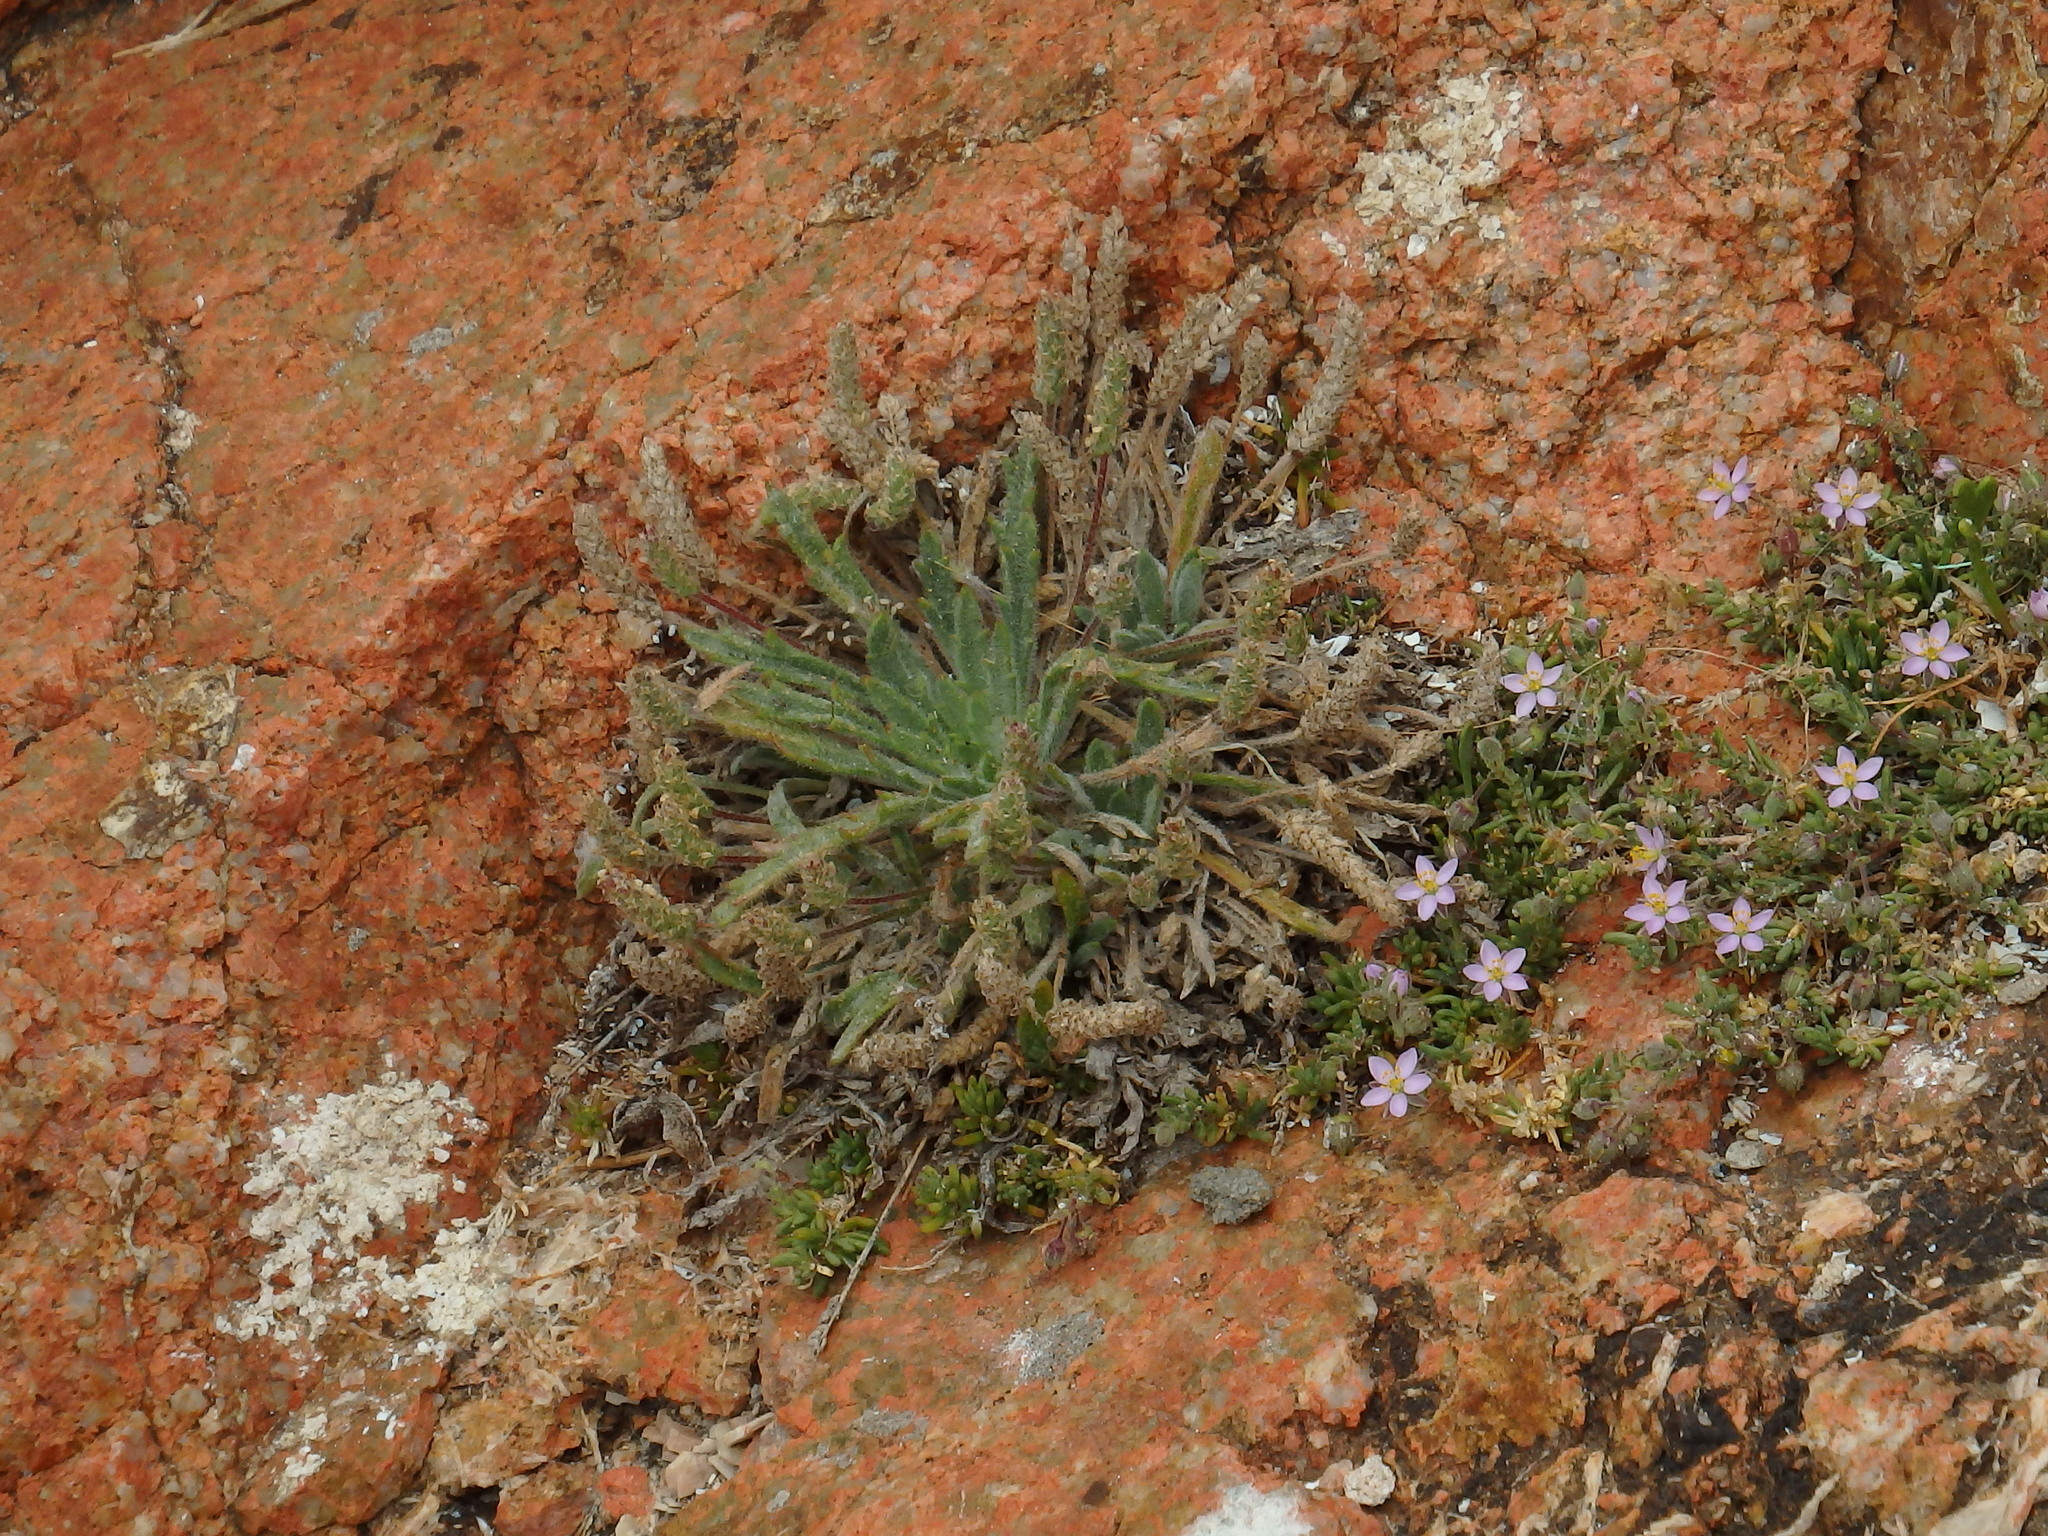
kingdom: Plantae
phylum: Tracheophyta
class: Magnoliopsida
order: Lamiales
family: Plantaginaceae
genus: Plantago
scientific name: Plantago coronopus
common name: Buck's-horn plantain
